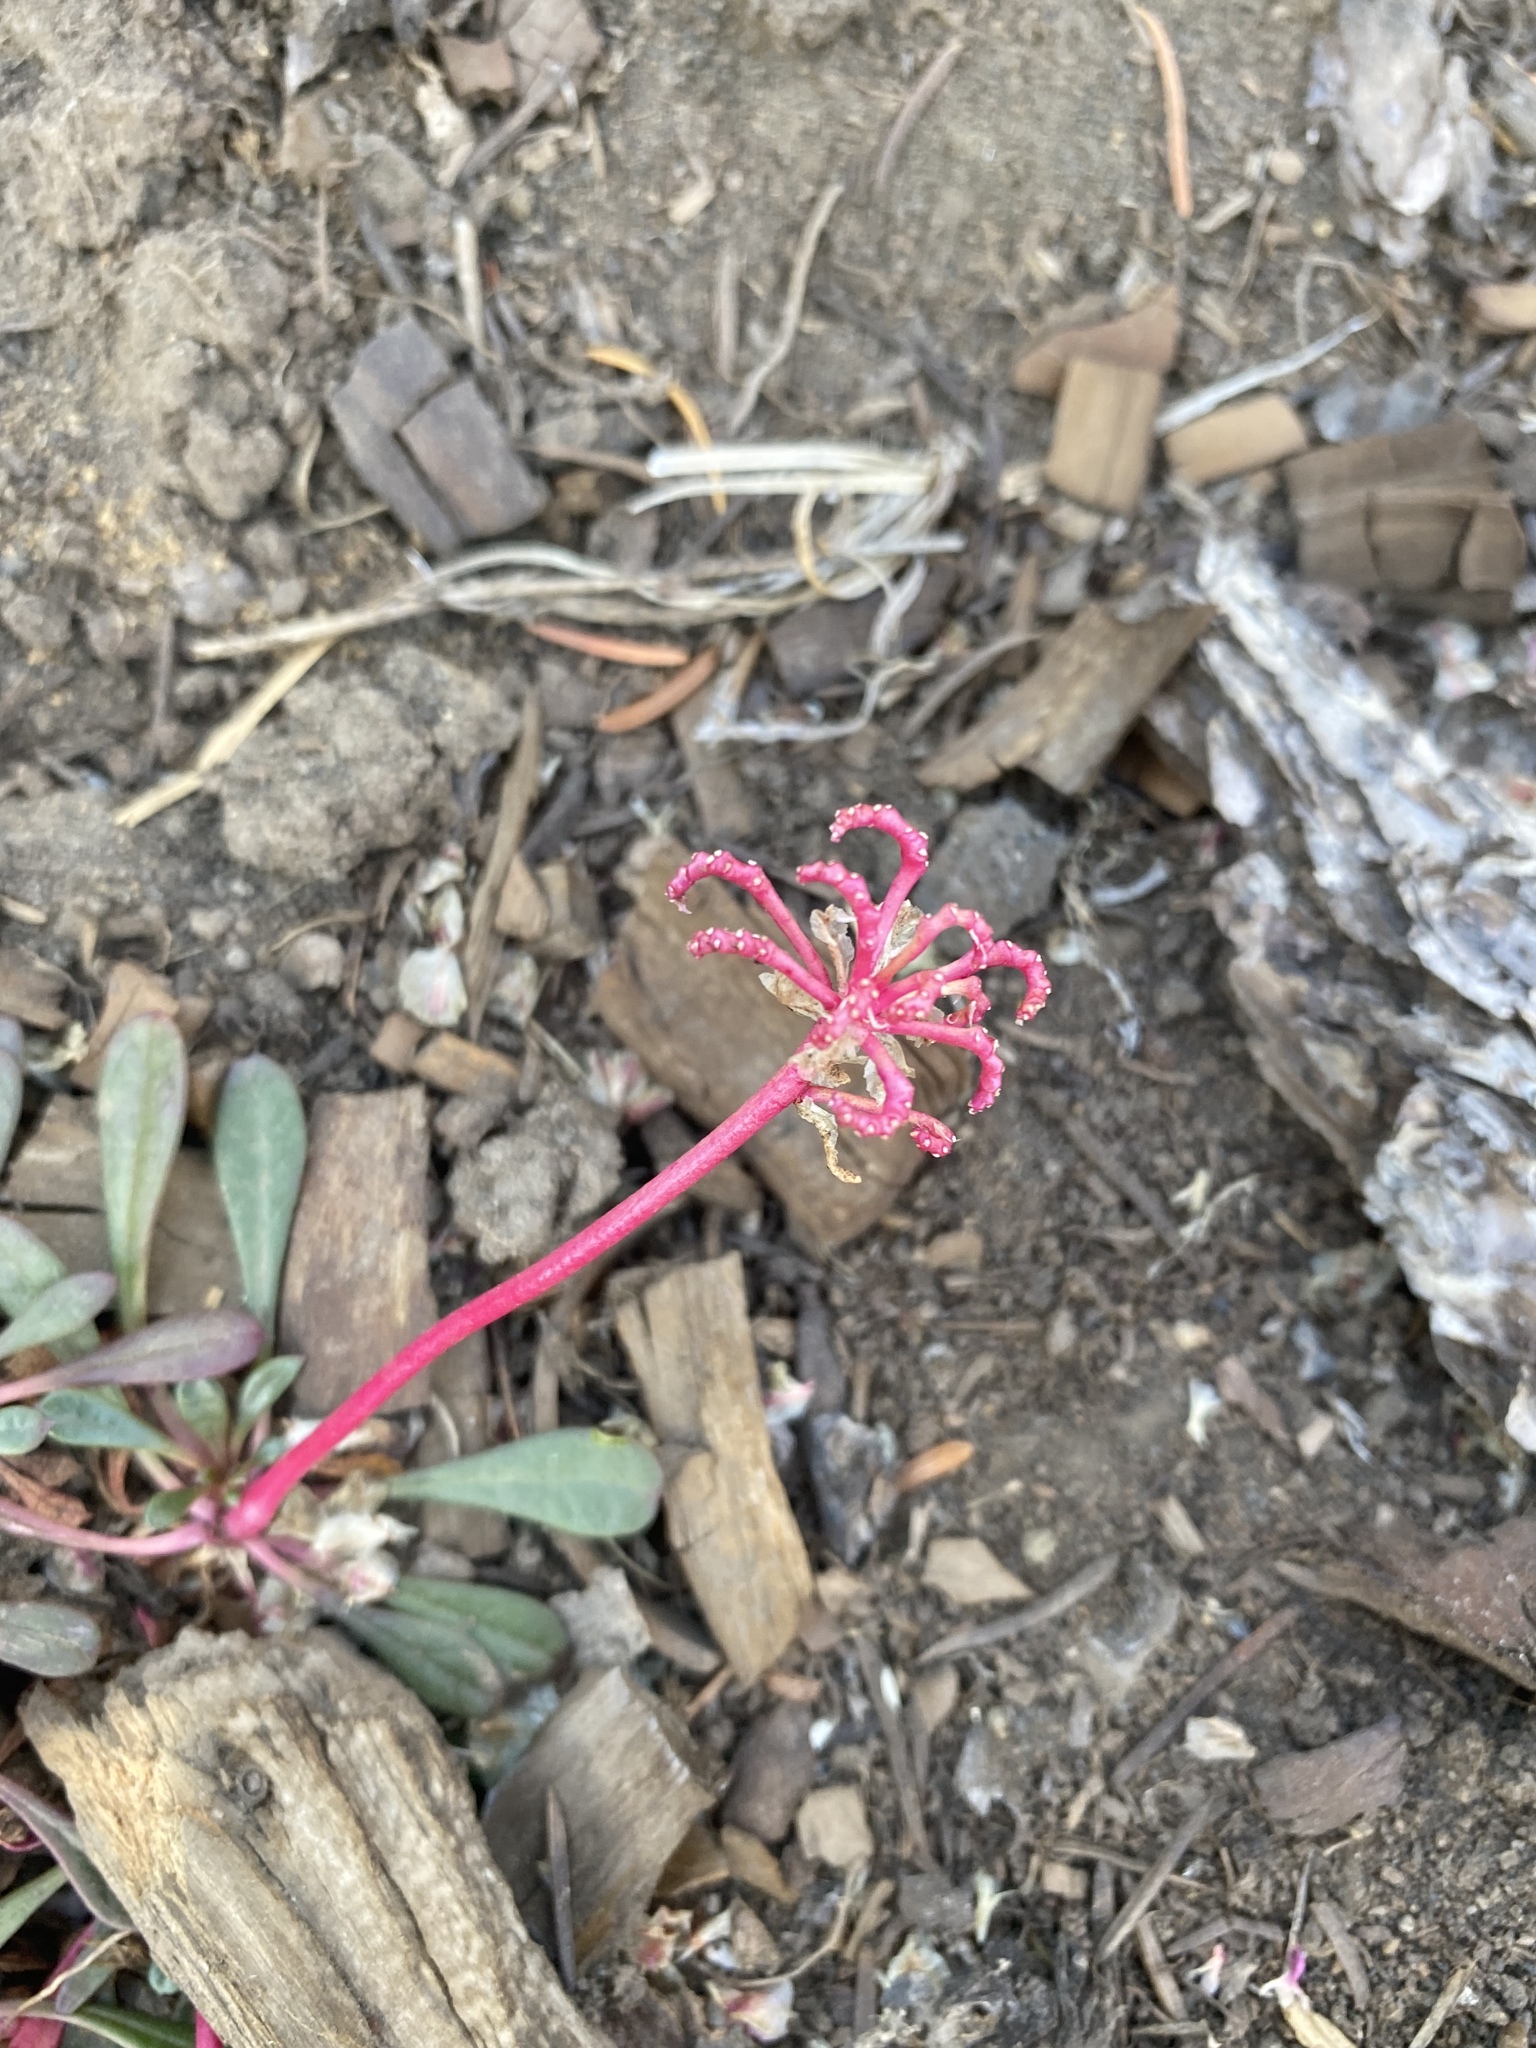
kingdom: Plantae
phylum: Tracheophyta
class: Magnoliopsida
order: Caryophyllales
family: Montiaceae
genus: Calyptridium
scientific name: Calyptridium umbellatum
